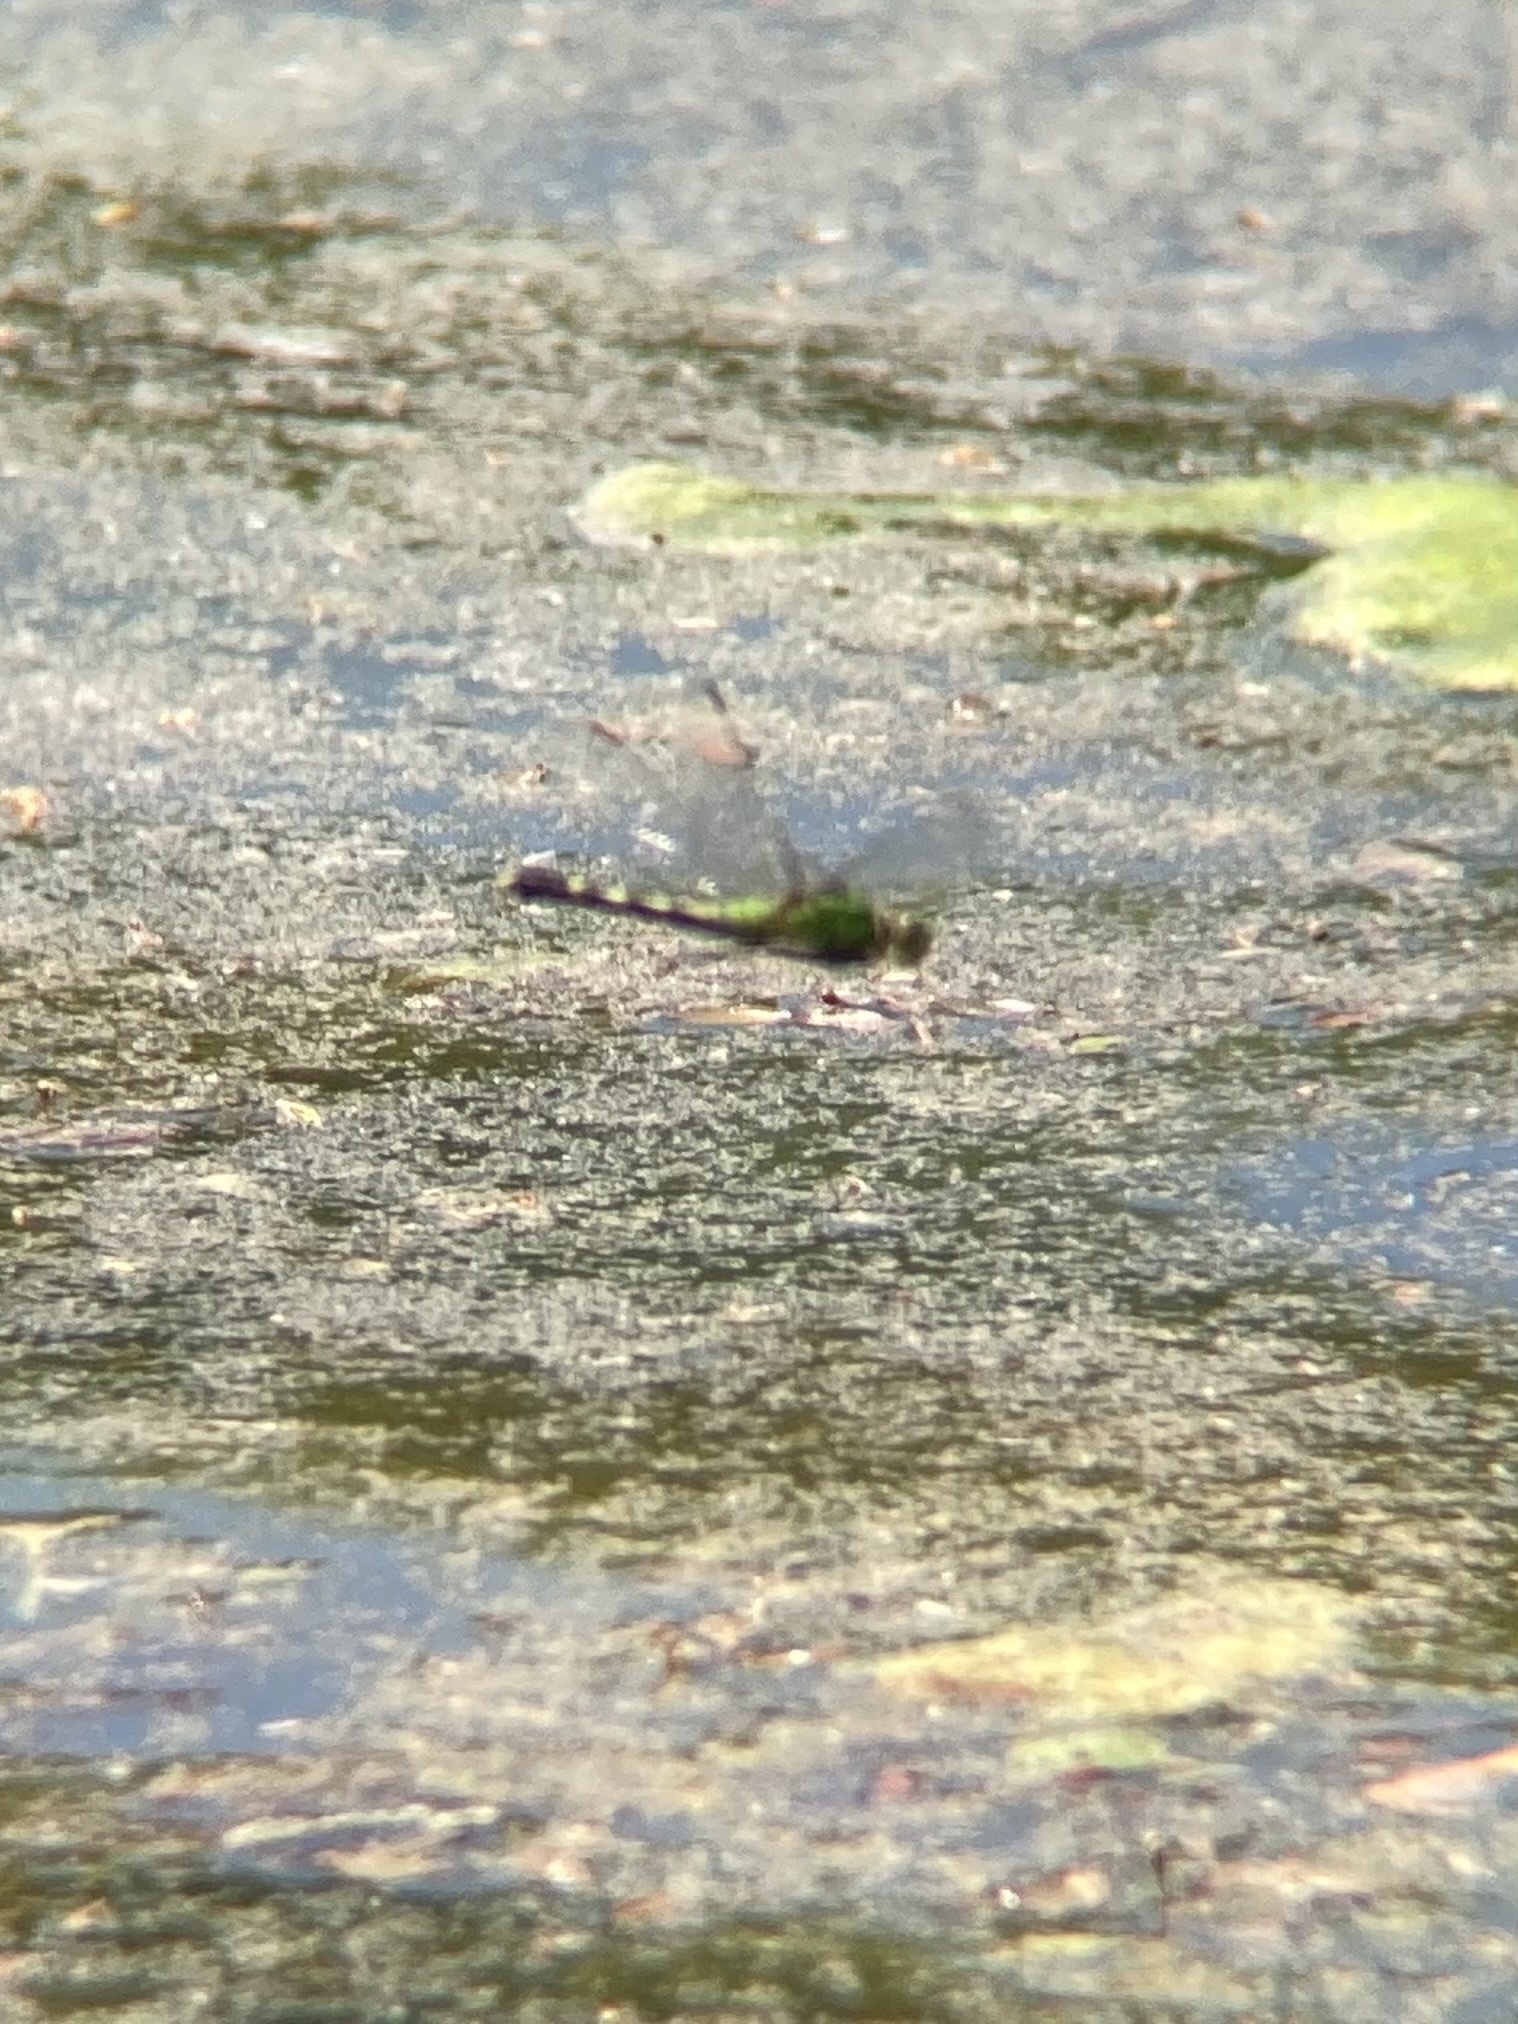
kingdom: Animalia
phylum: Arthropoda
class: Insecta
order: Odonata
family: Libellulidae
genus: Erythemis
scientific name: Erythemis simplicicollis
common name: Eastern pondhawk
